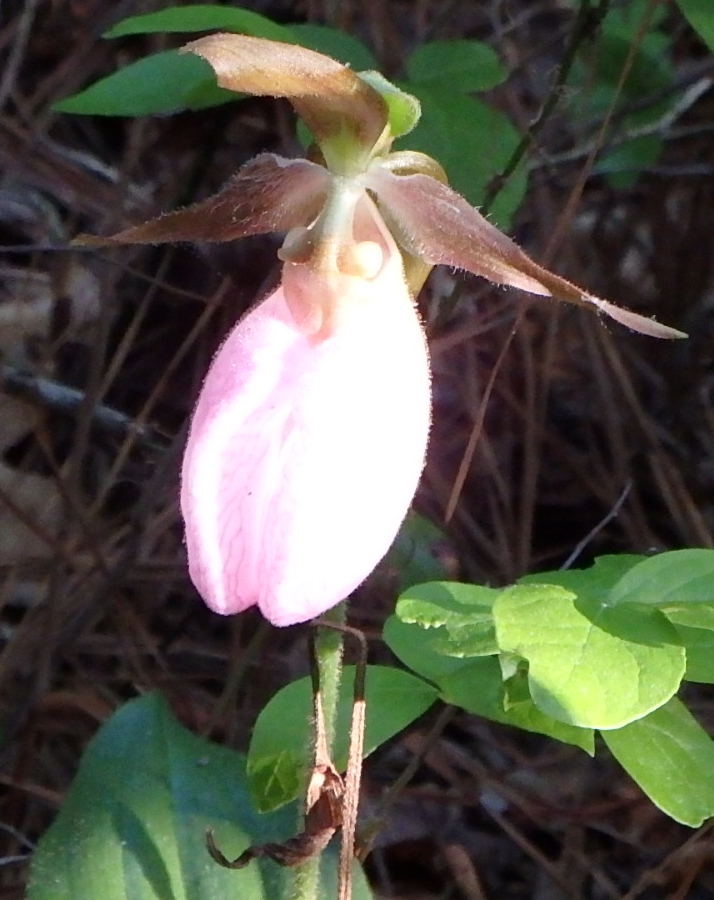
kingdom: Plantae
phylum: Tracheophyta
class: Liliopsida
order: Asparagales
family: Orchidaceae
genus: Cypripedium
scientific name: Cypripedium acaule
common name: Pink lady's-slipper
